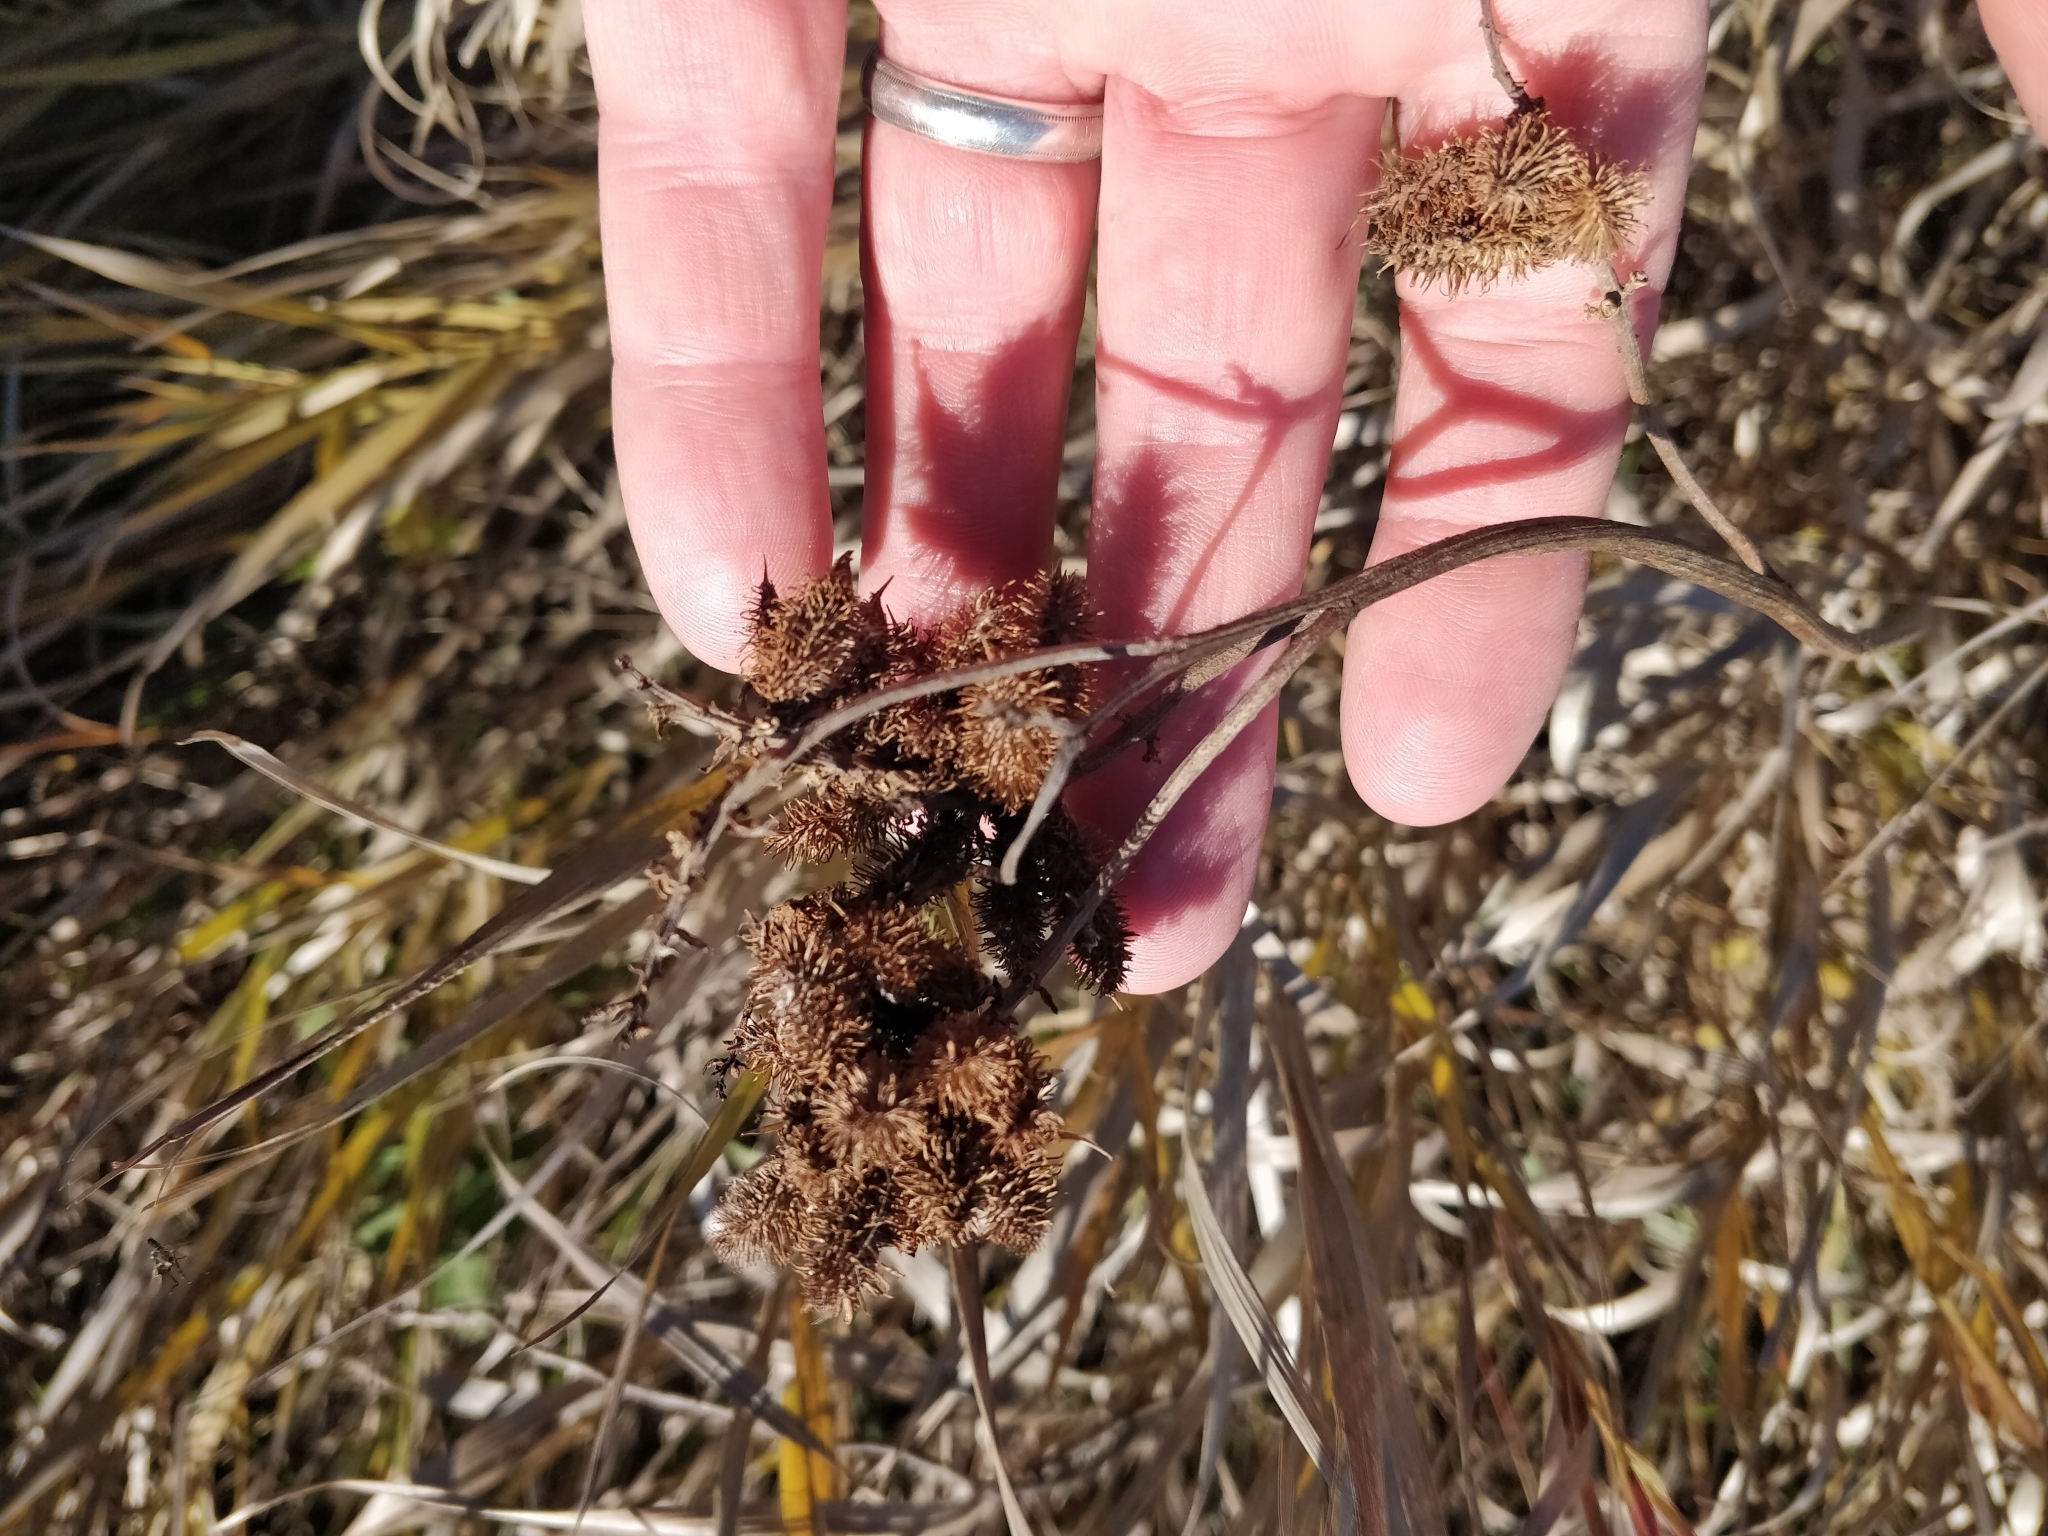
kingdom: Plantae
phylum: Tracheophyta
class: Magnoliopsida
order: Fabales
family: Fabaceae
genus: Glycyrrhiza
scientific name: Glycyrrhiza lepidota
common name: American liquorice
